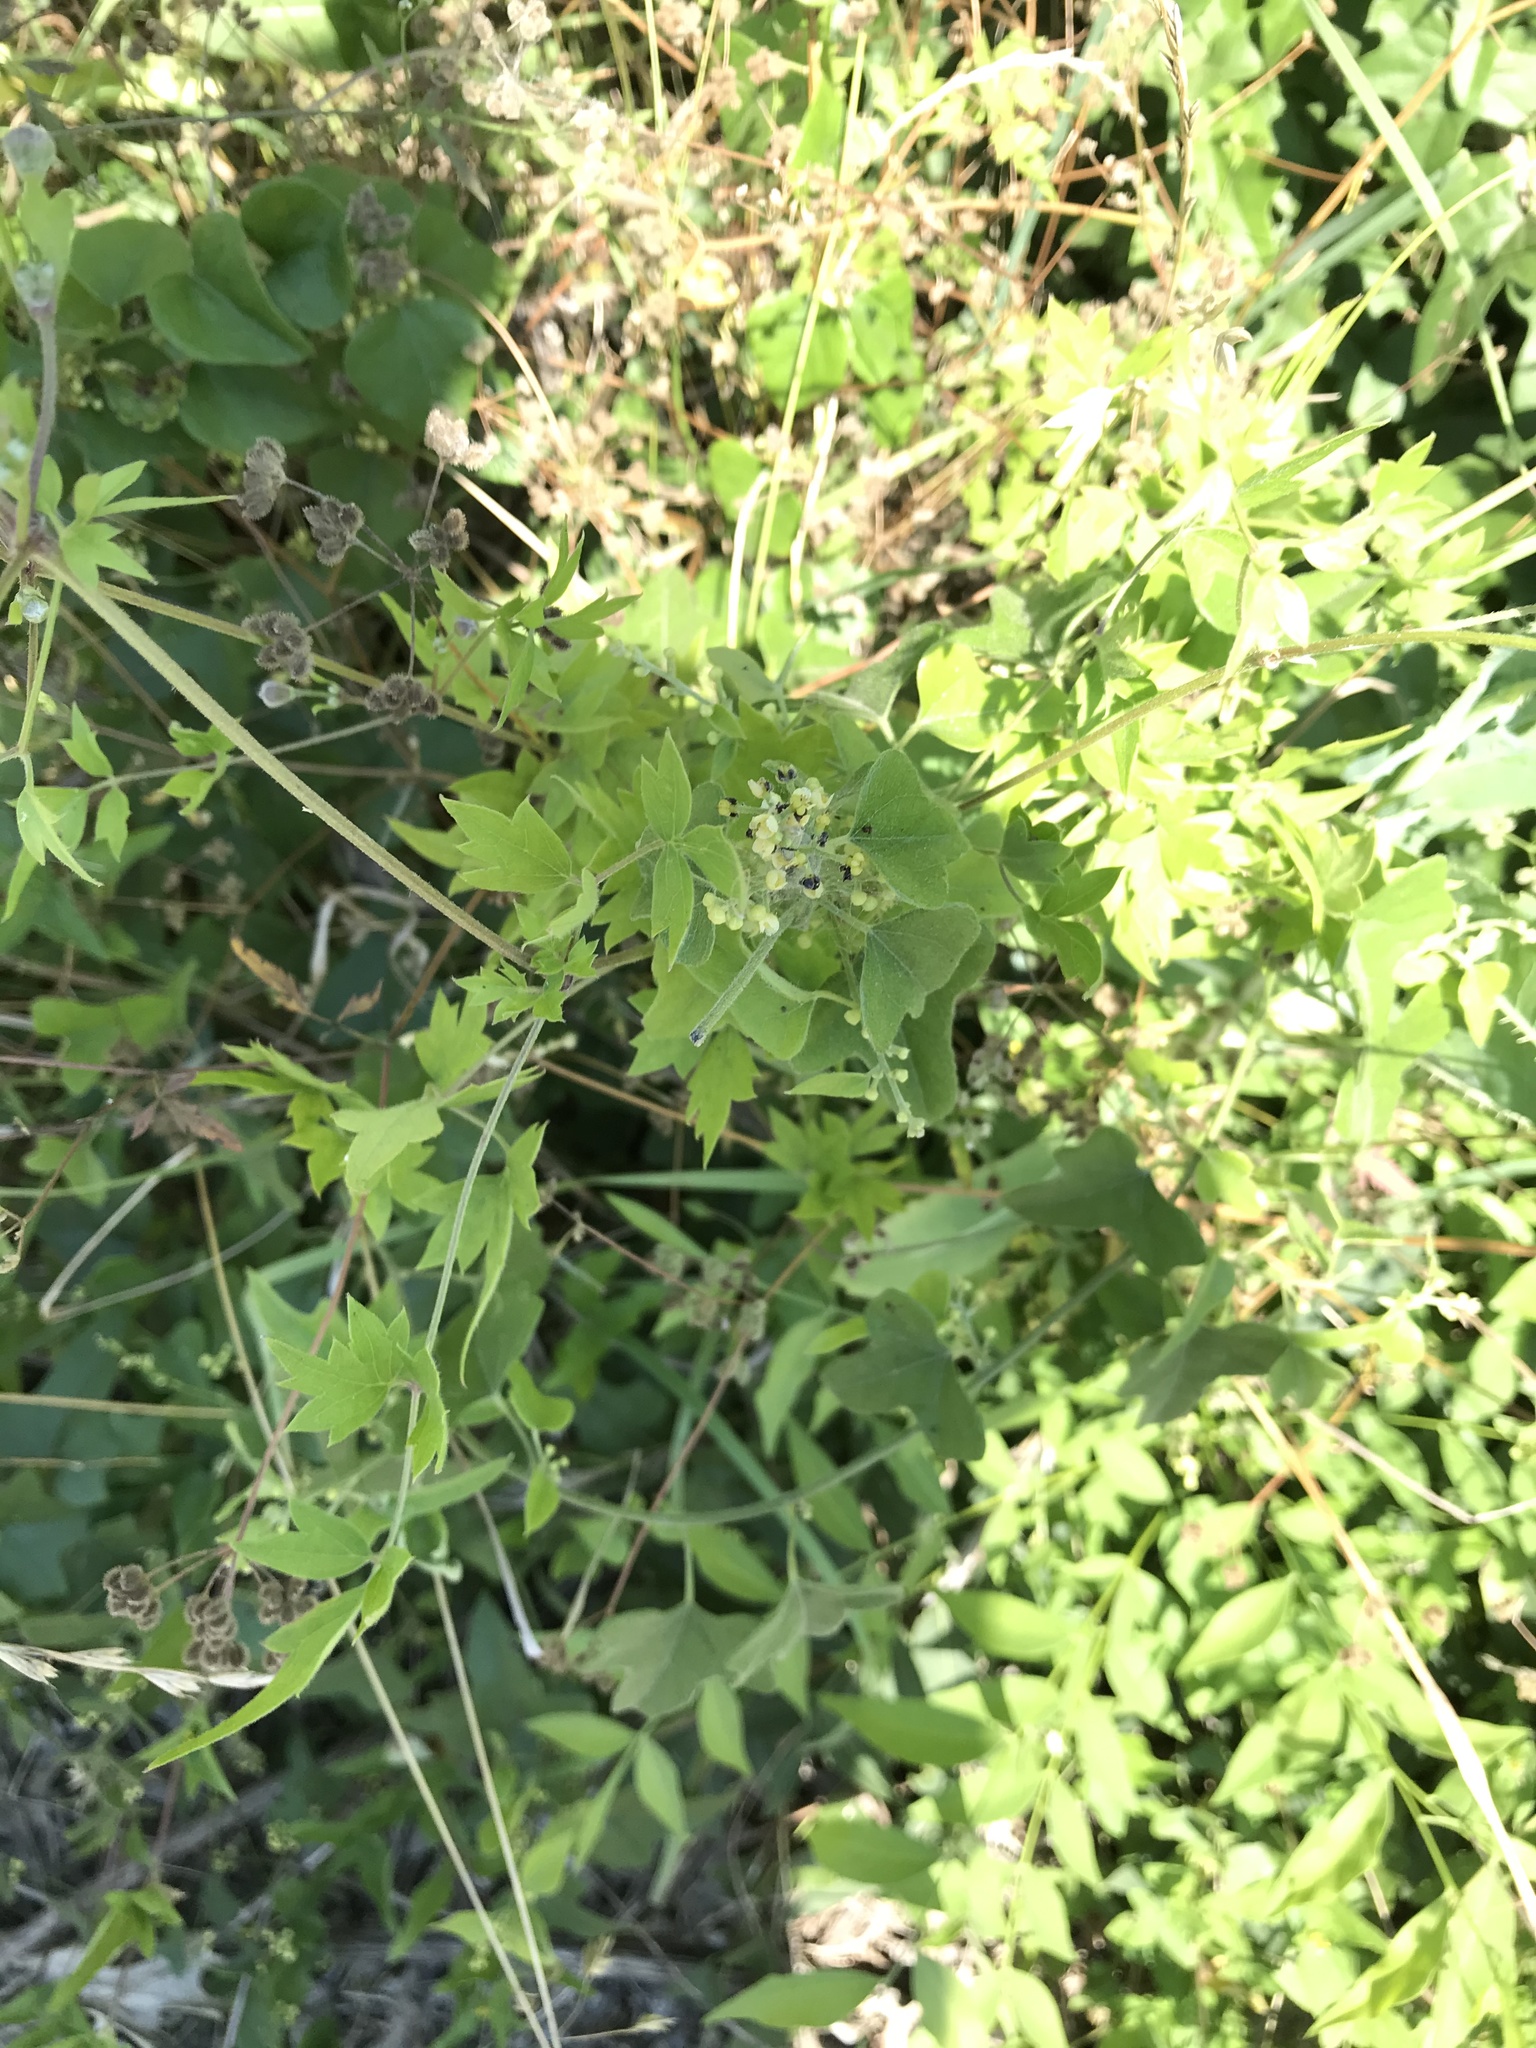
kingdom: Plantae
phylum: Tracheophyta
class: Magnoliopsida
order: Ranunculales
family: Ranunculaceae
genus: Clematis
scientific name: Clematis drummondii
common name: Texas virgin's bower
